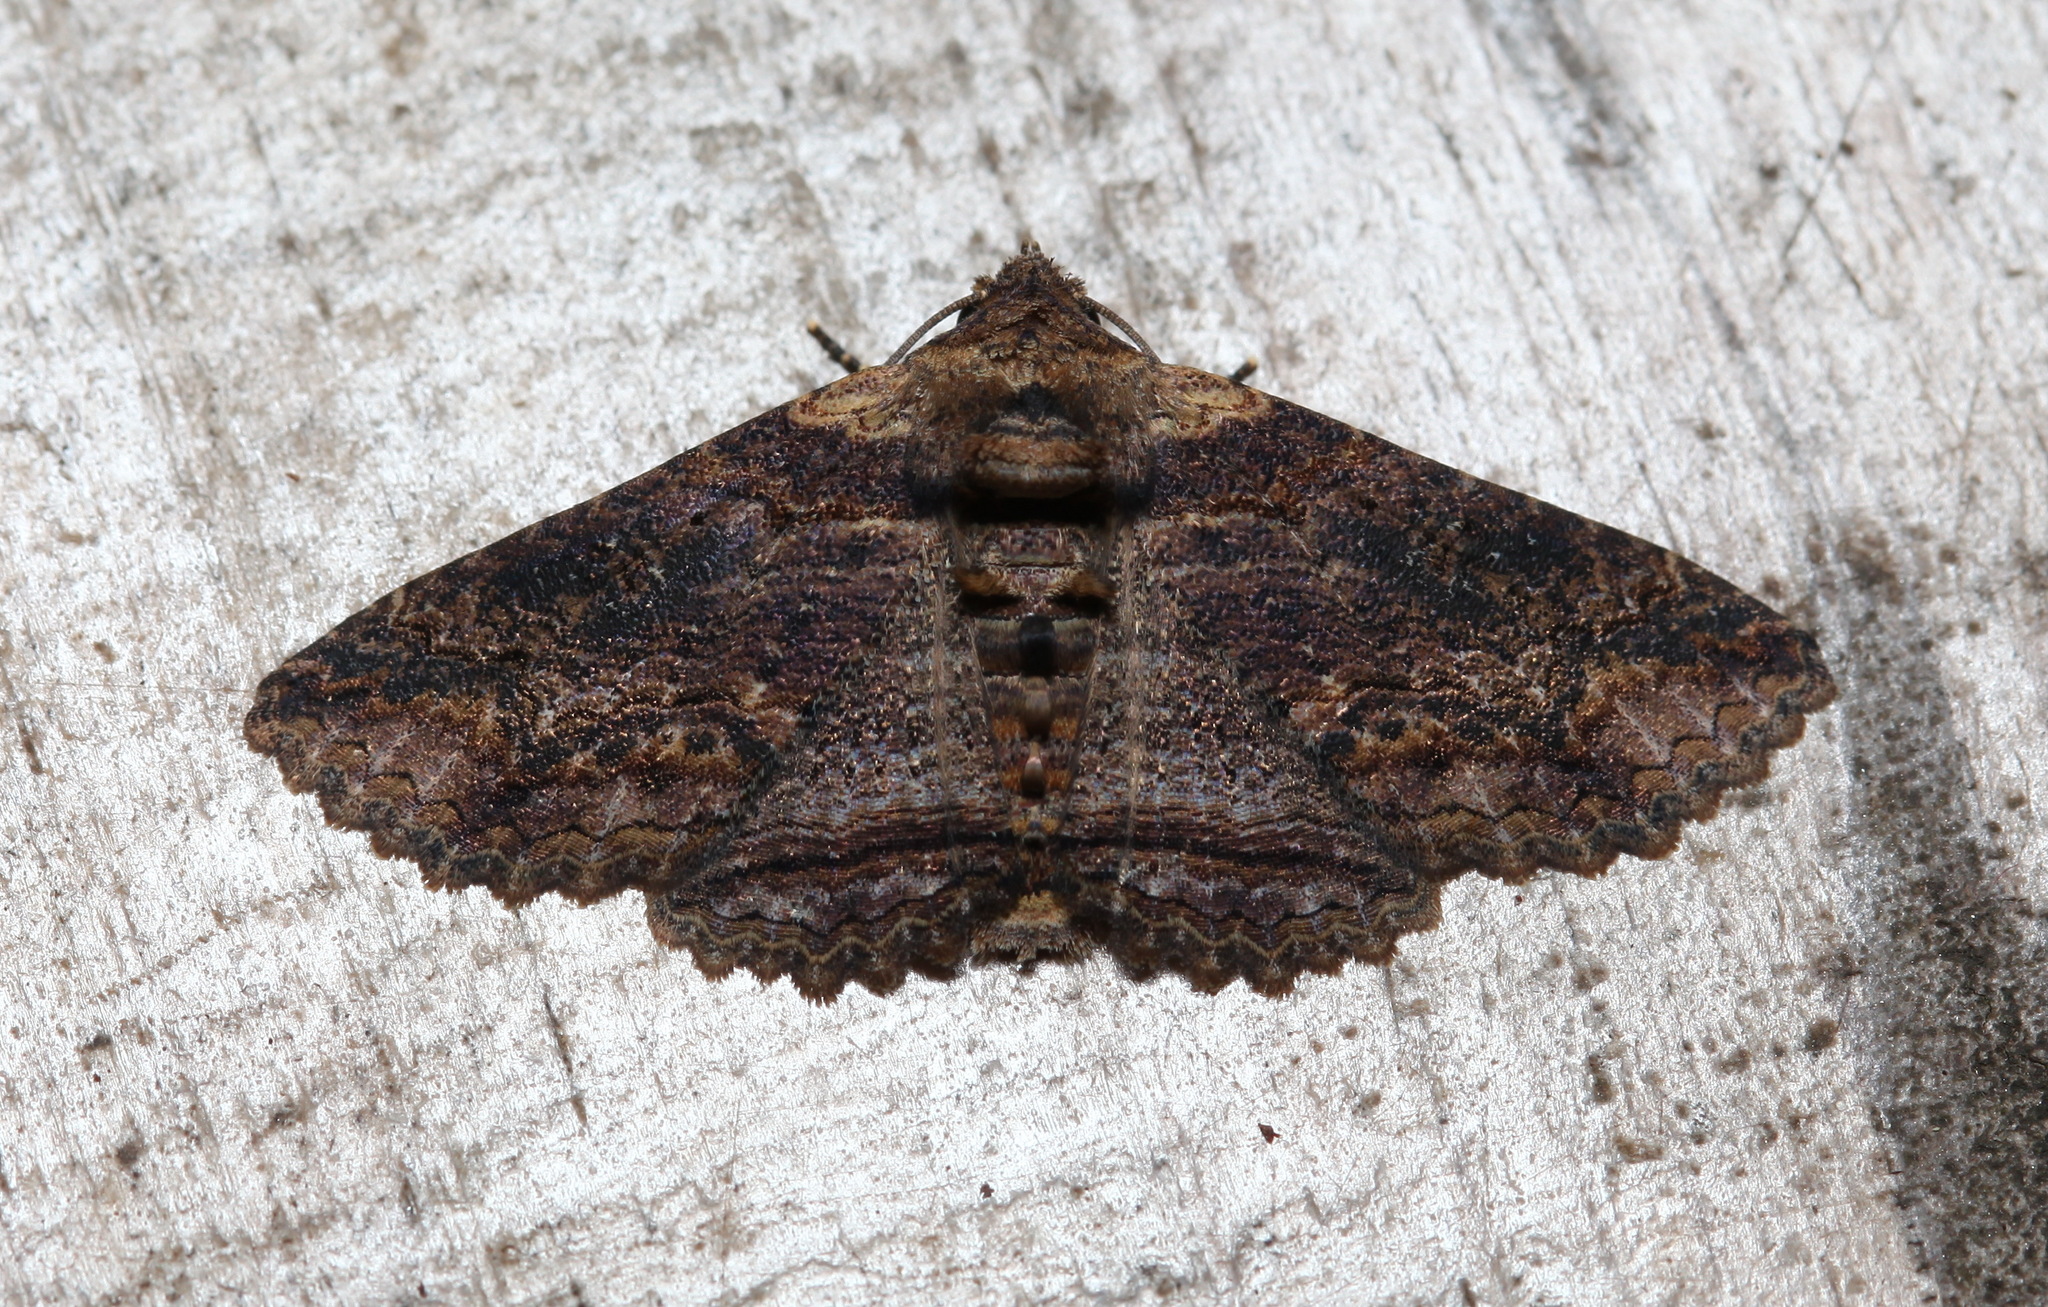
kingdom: Animalia
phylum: Arthropoda
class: Insecta
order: Lepidoptera
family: Erebidae
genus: Pericyma
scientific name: Pericyma mendax
